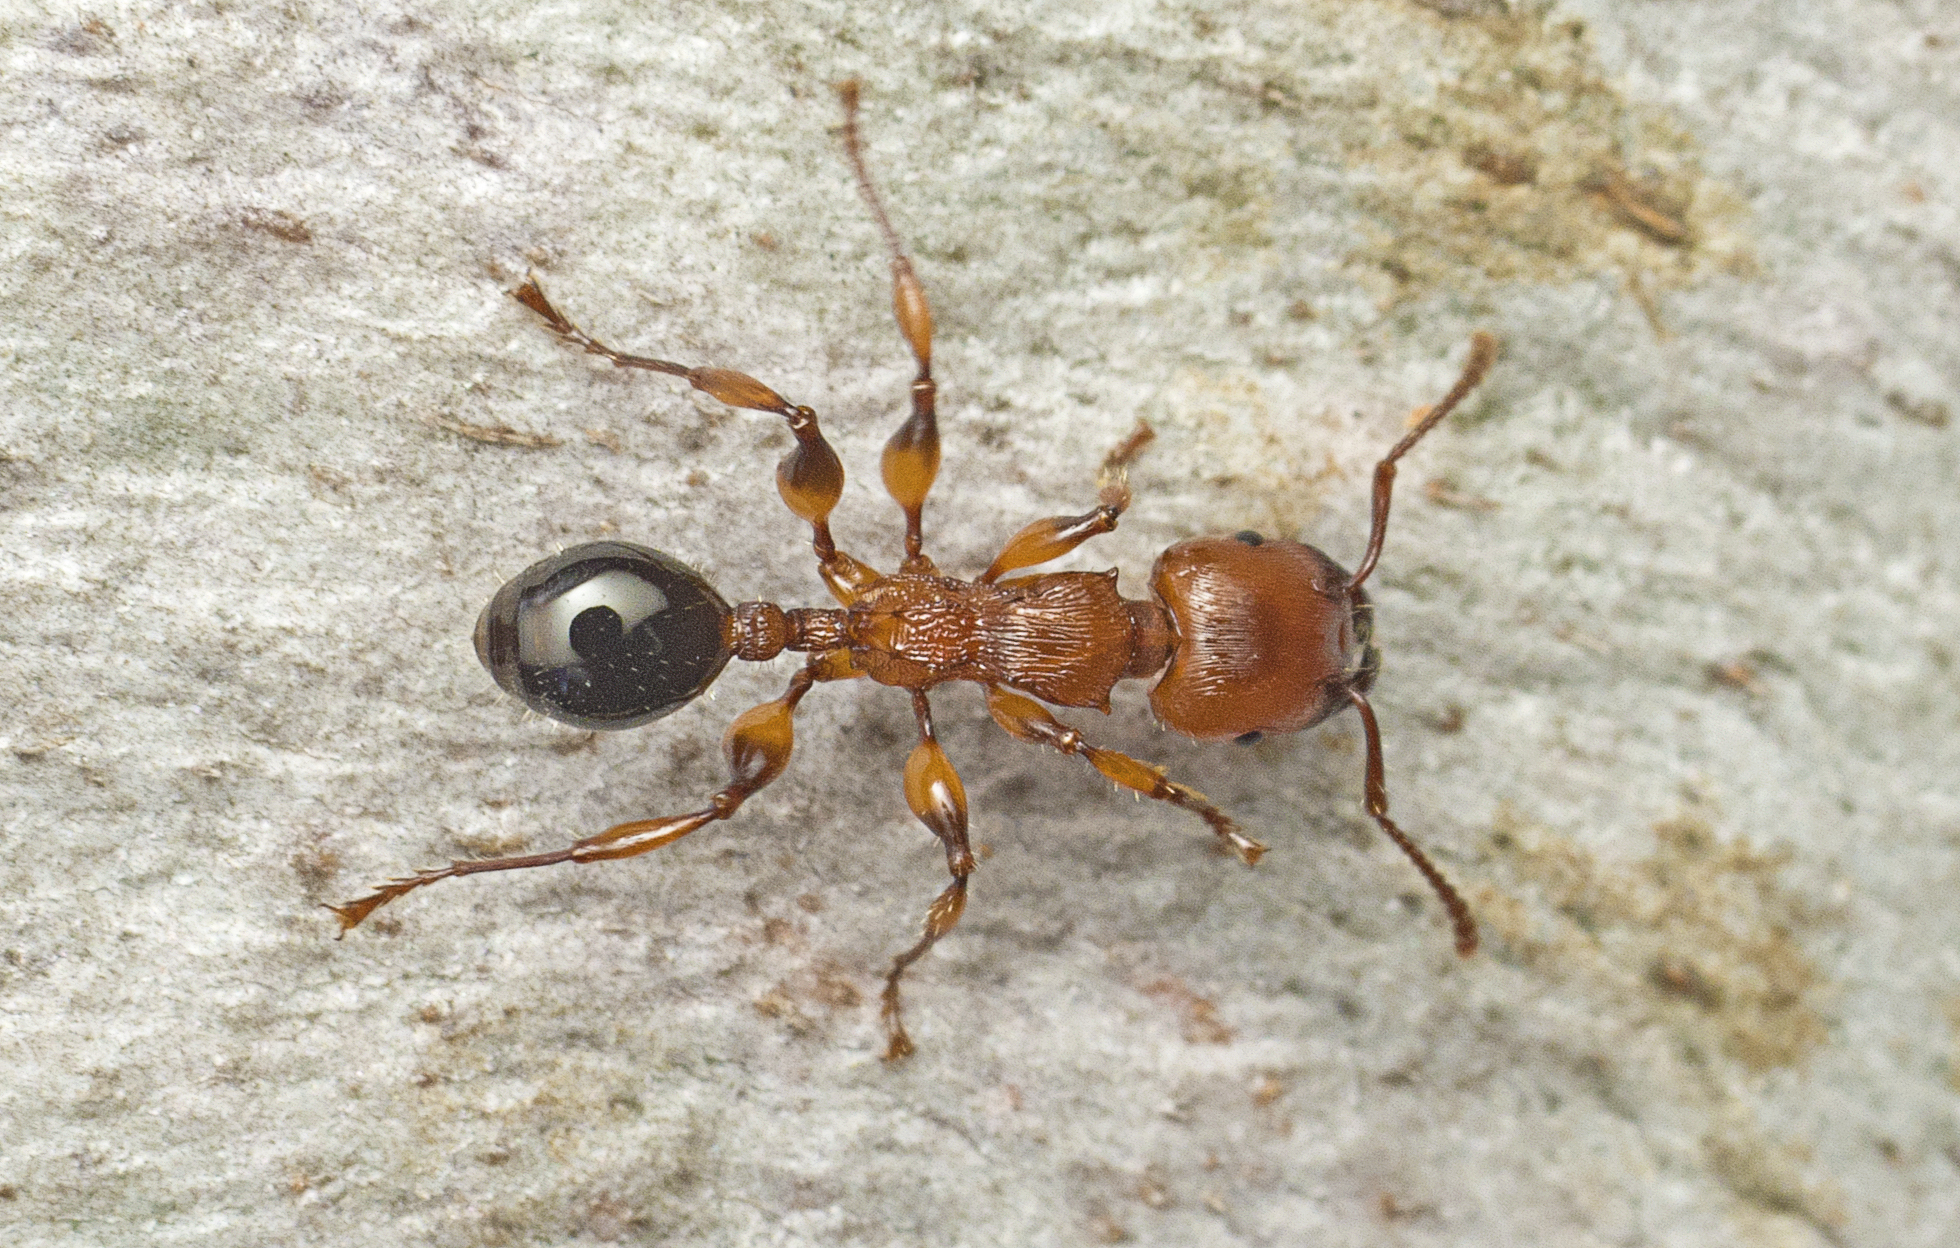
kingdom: Animalia
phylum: Arthropoda
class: Insecta
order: Hymenoptera
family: Formicidae
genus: Podomyrma
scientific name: Podomyrma gratiosa
